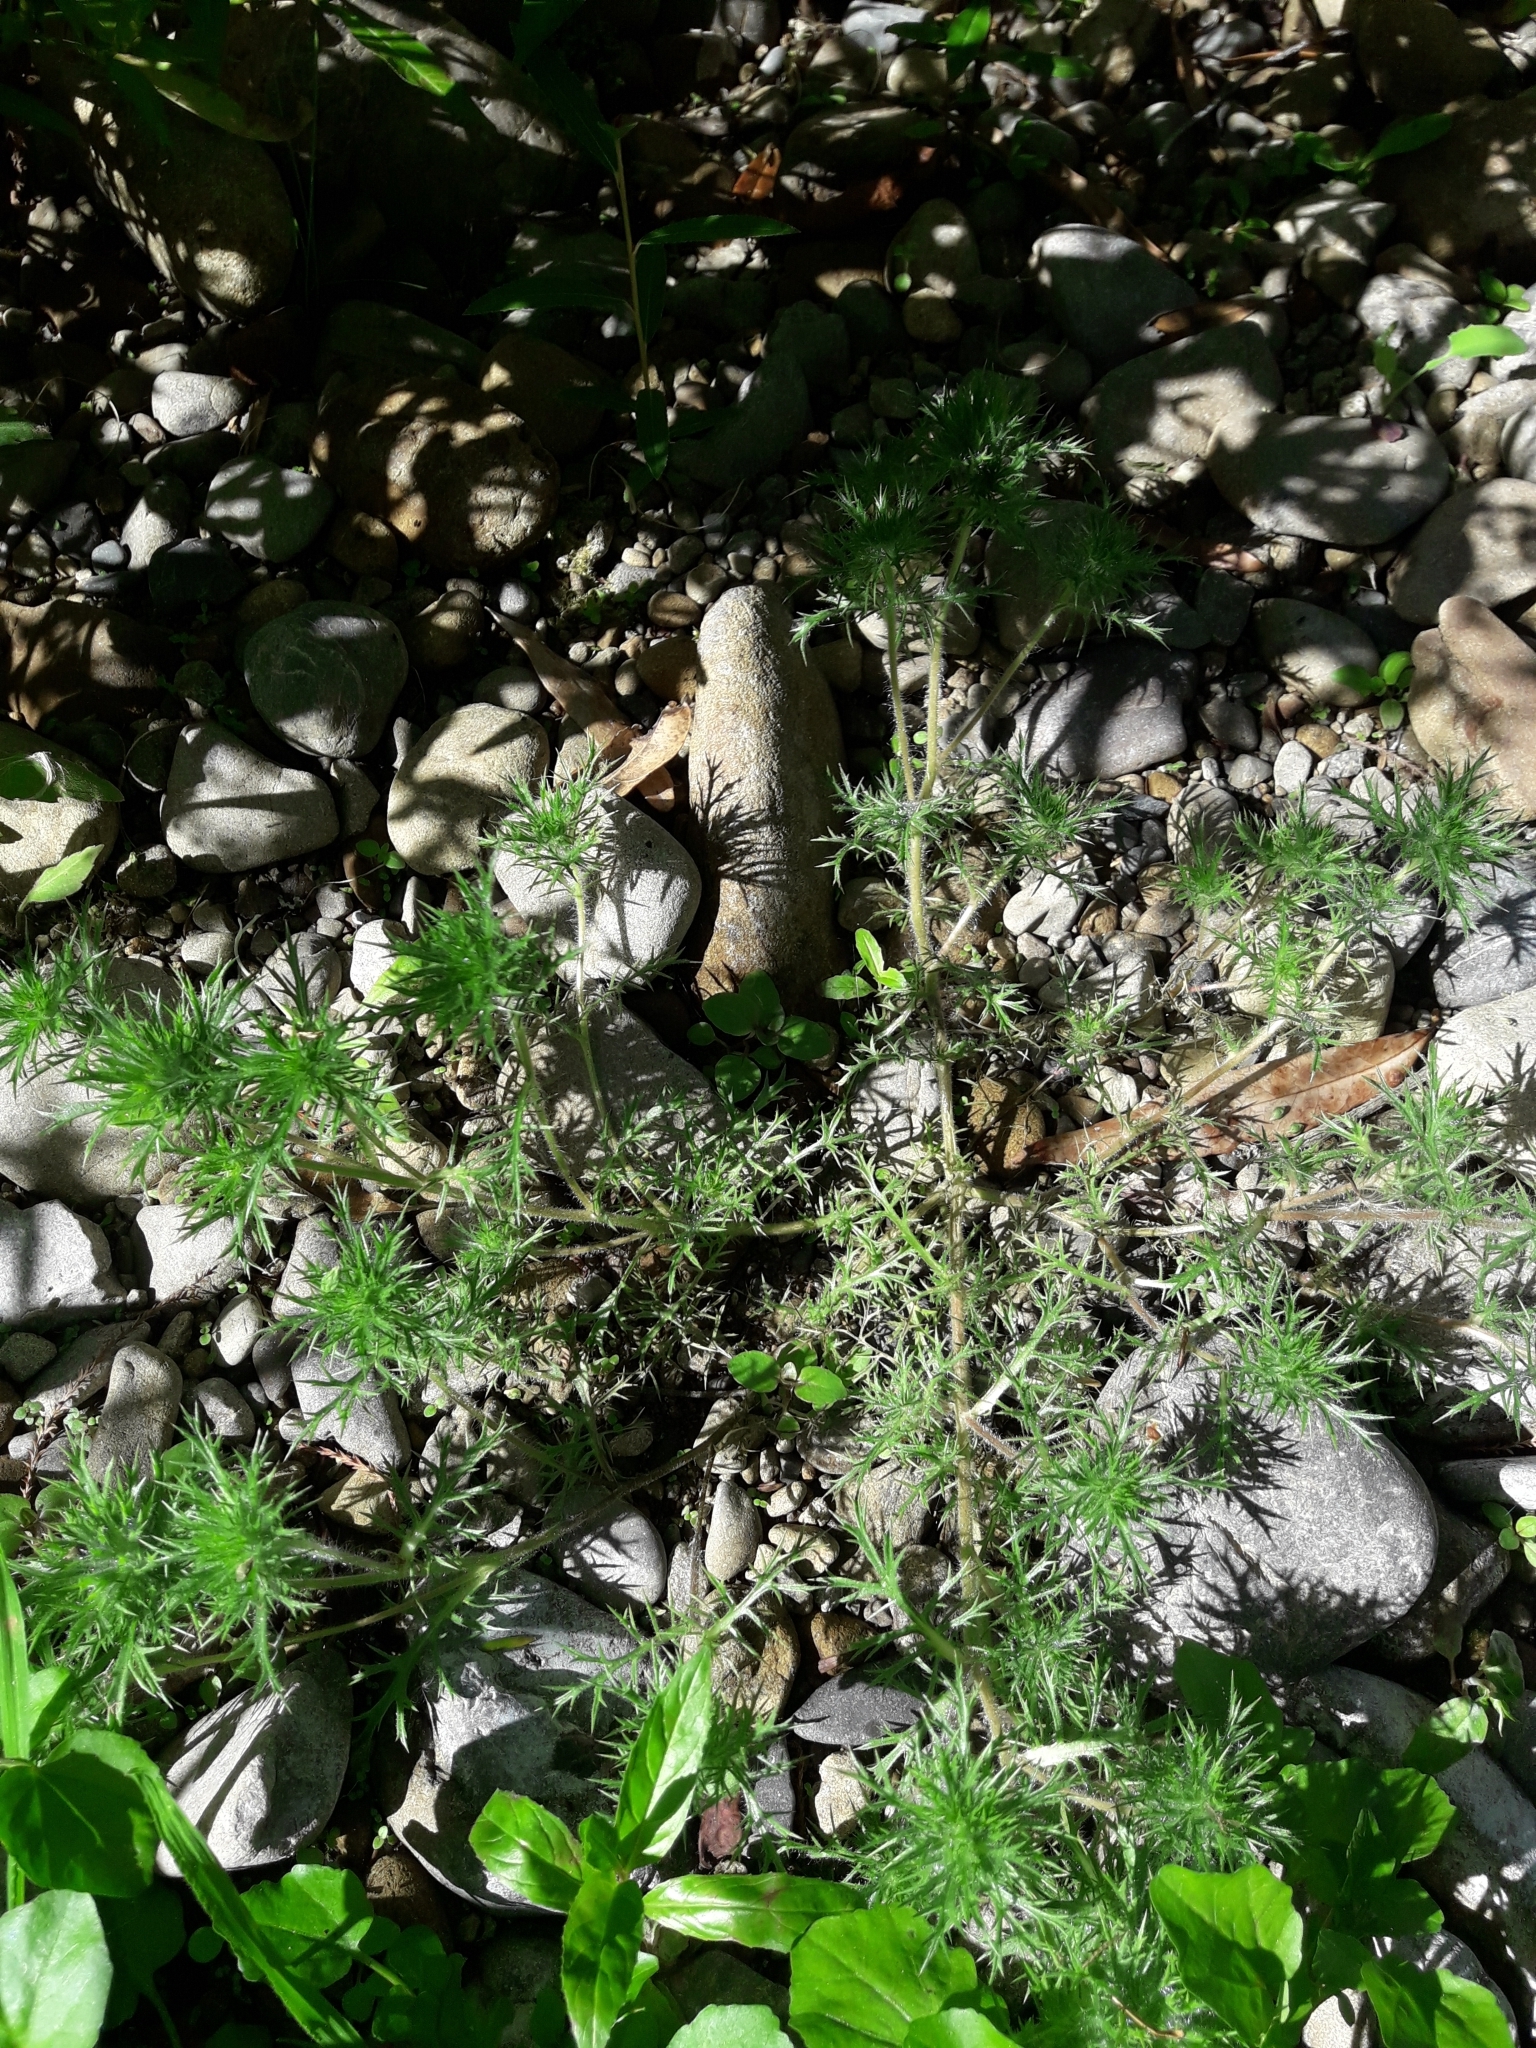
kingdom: Plantae
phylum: Tracheophyta
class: Magnoliopsida
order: Ericales
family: Polemoniaceae
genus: Navarretia
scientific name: Navarretia squarrosa
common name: Skunkweed
